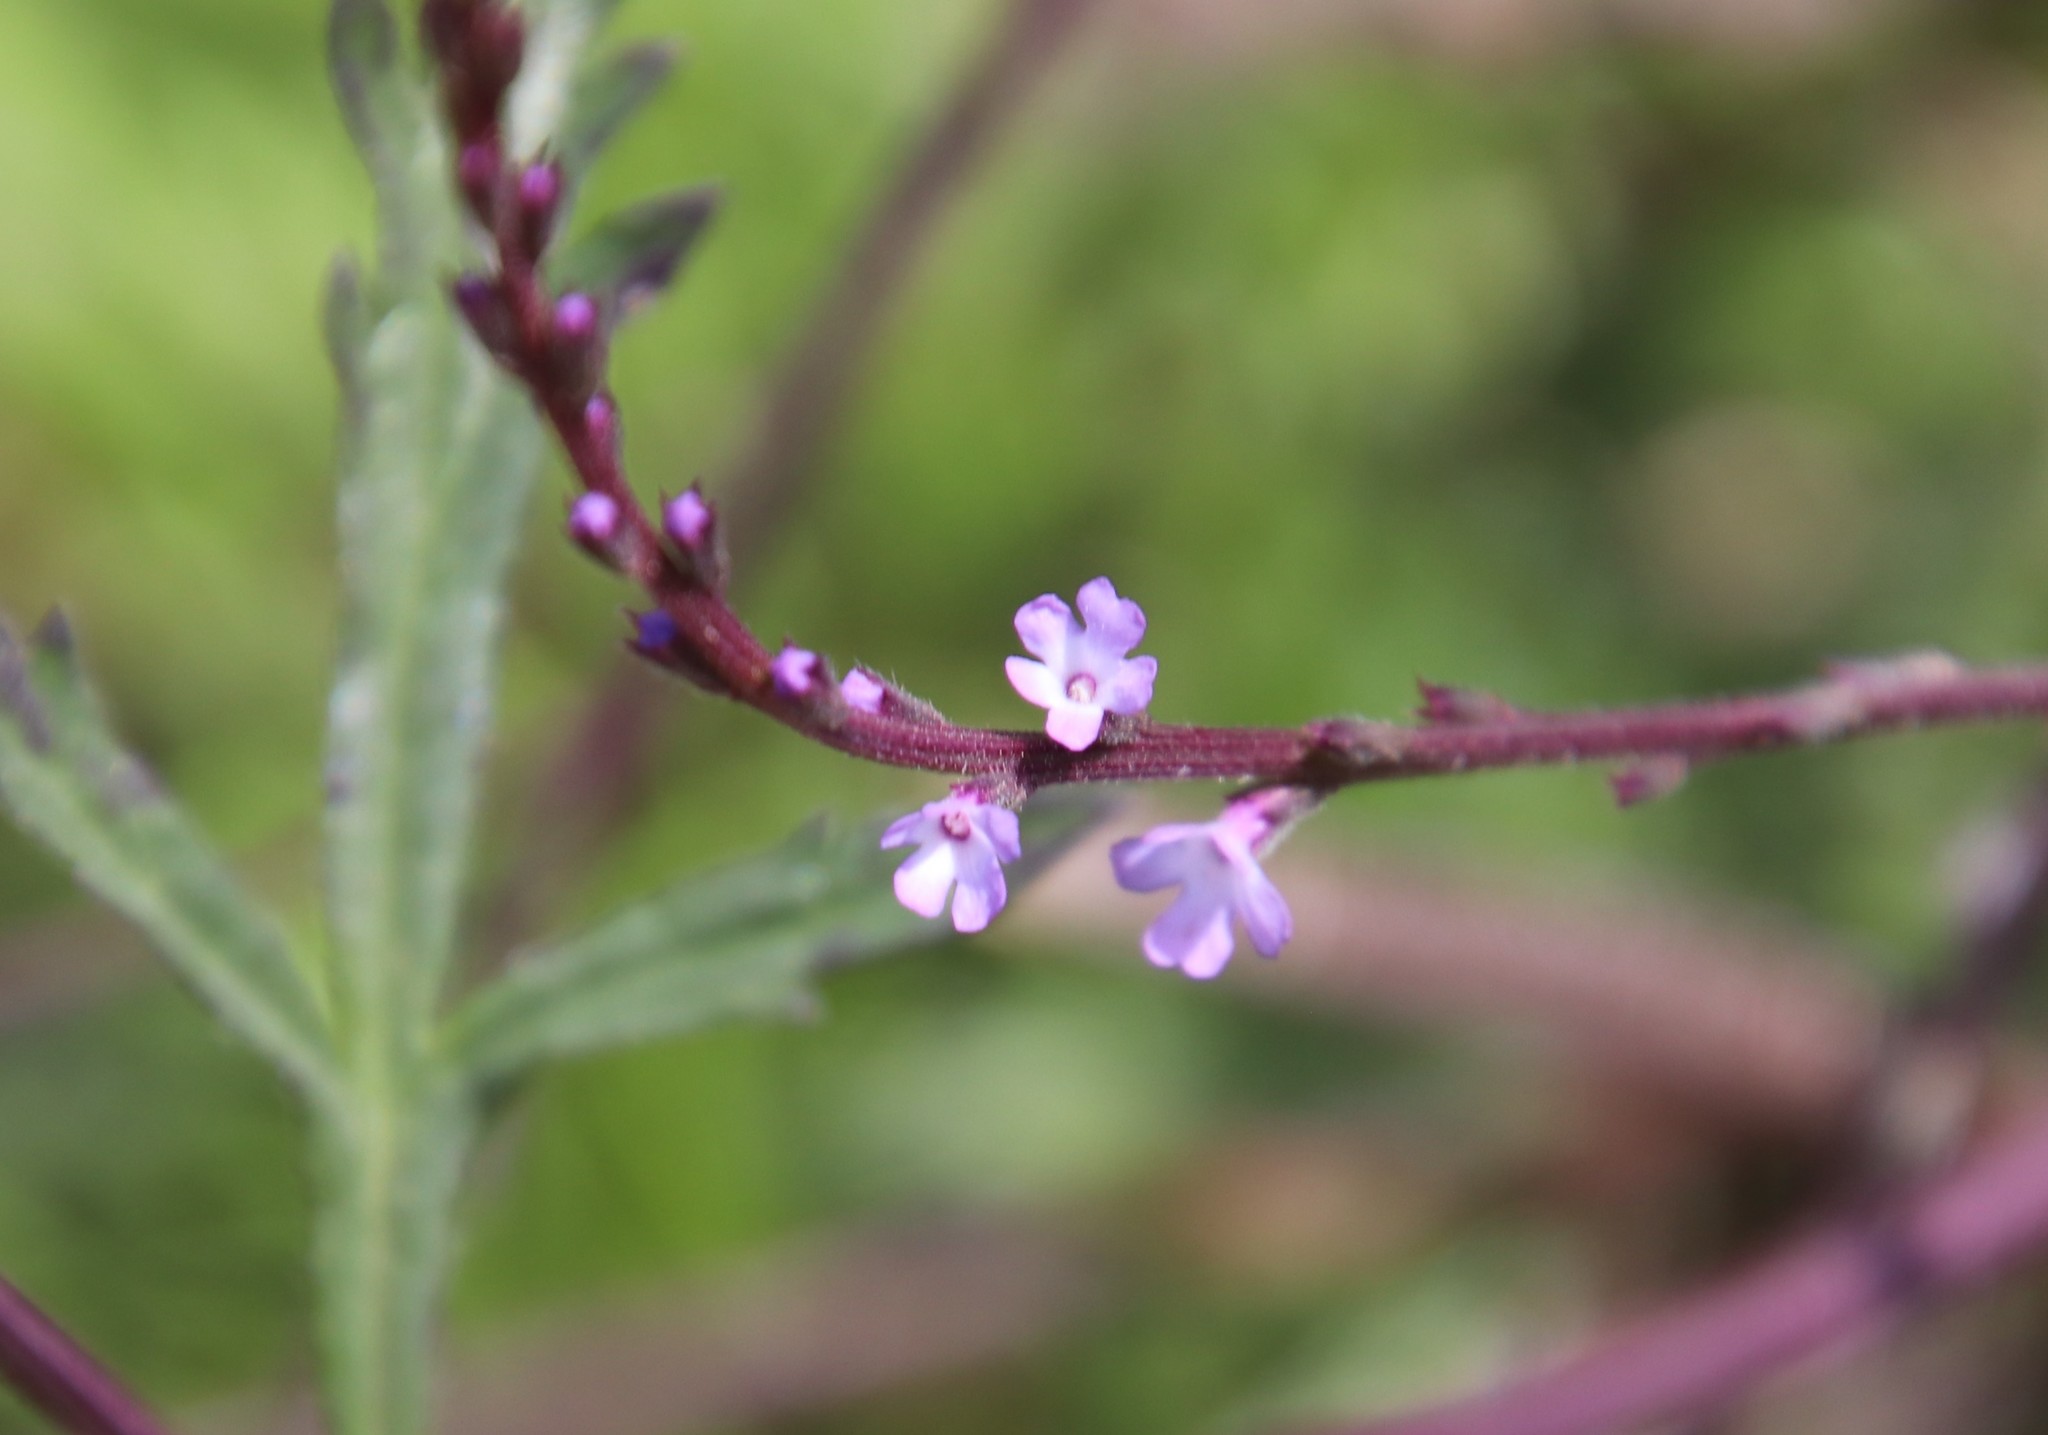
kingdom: Plantae
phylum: Tracheophyta
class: Magnoliopsida
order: Lamiales
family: Verbenaceae
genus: Verbena
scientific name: Verbena menthifolia
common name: Mint-leaf vervain
